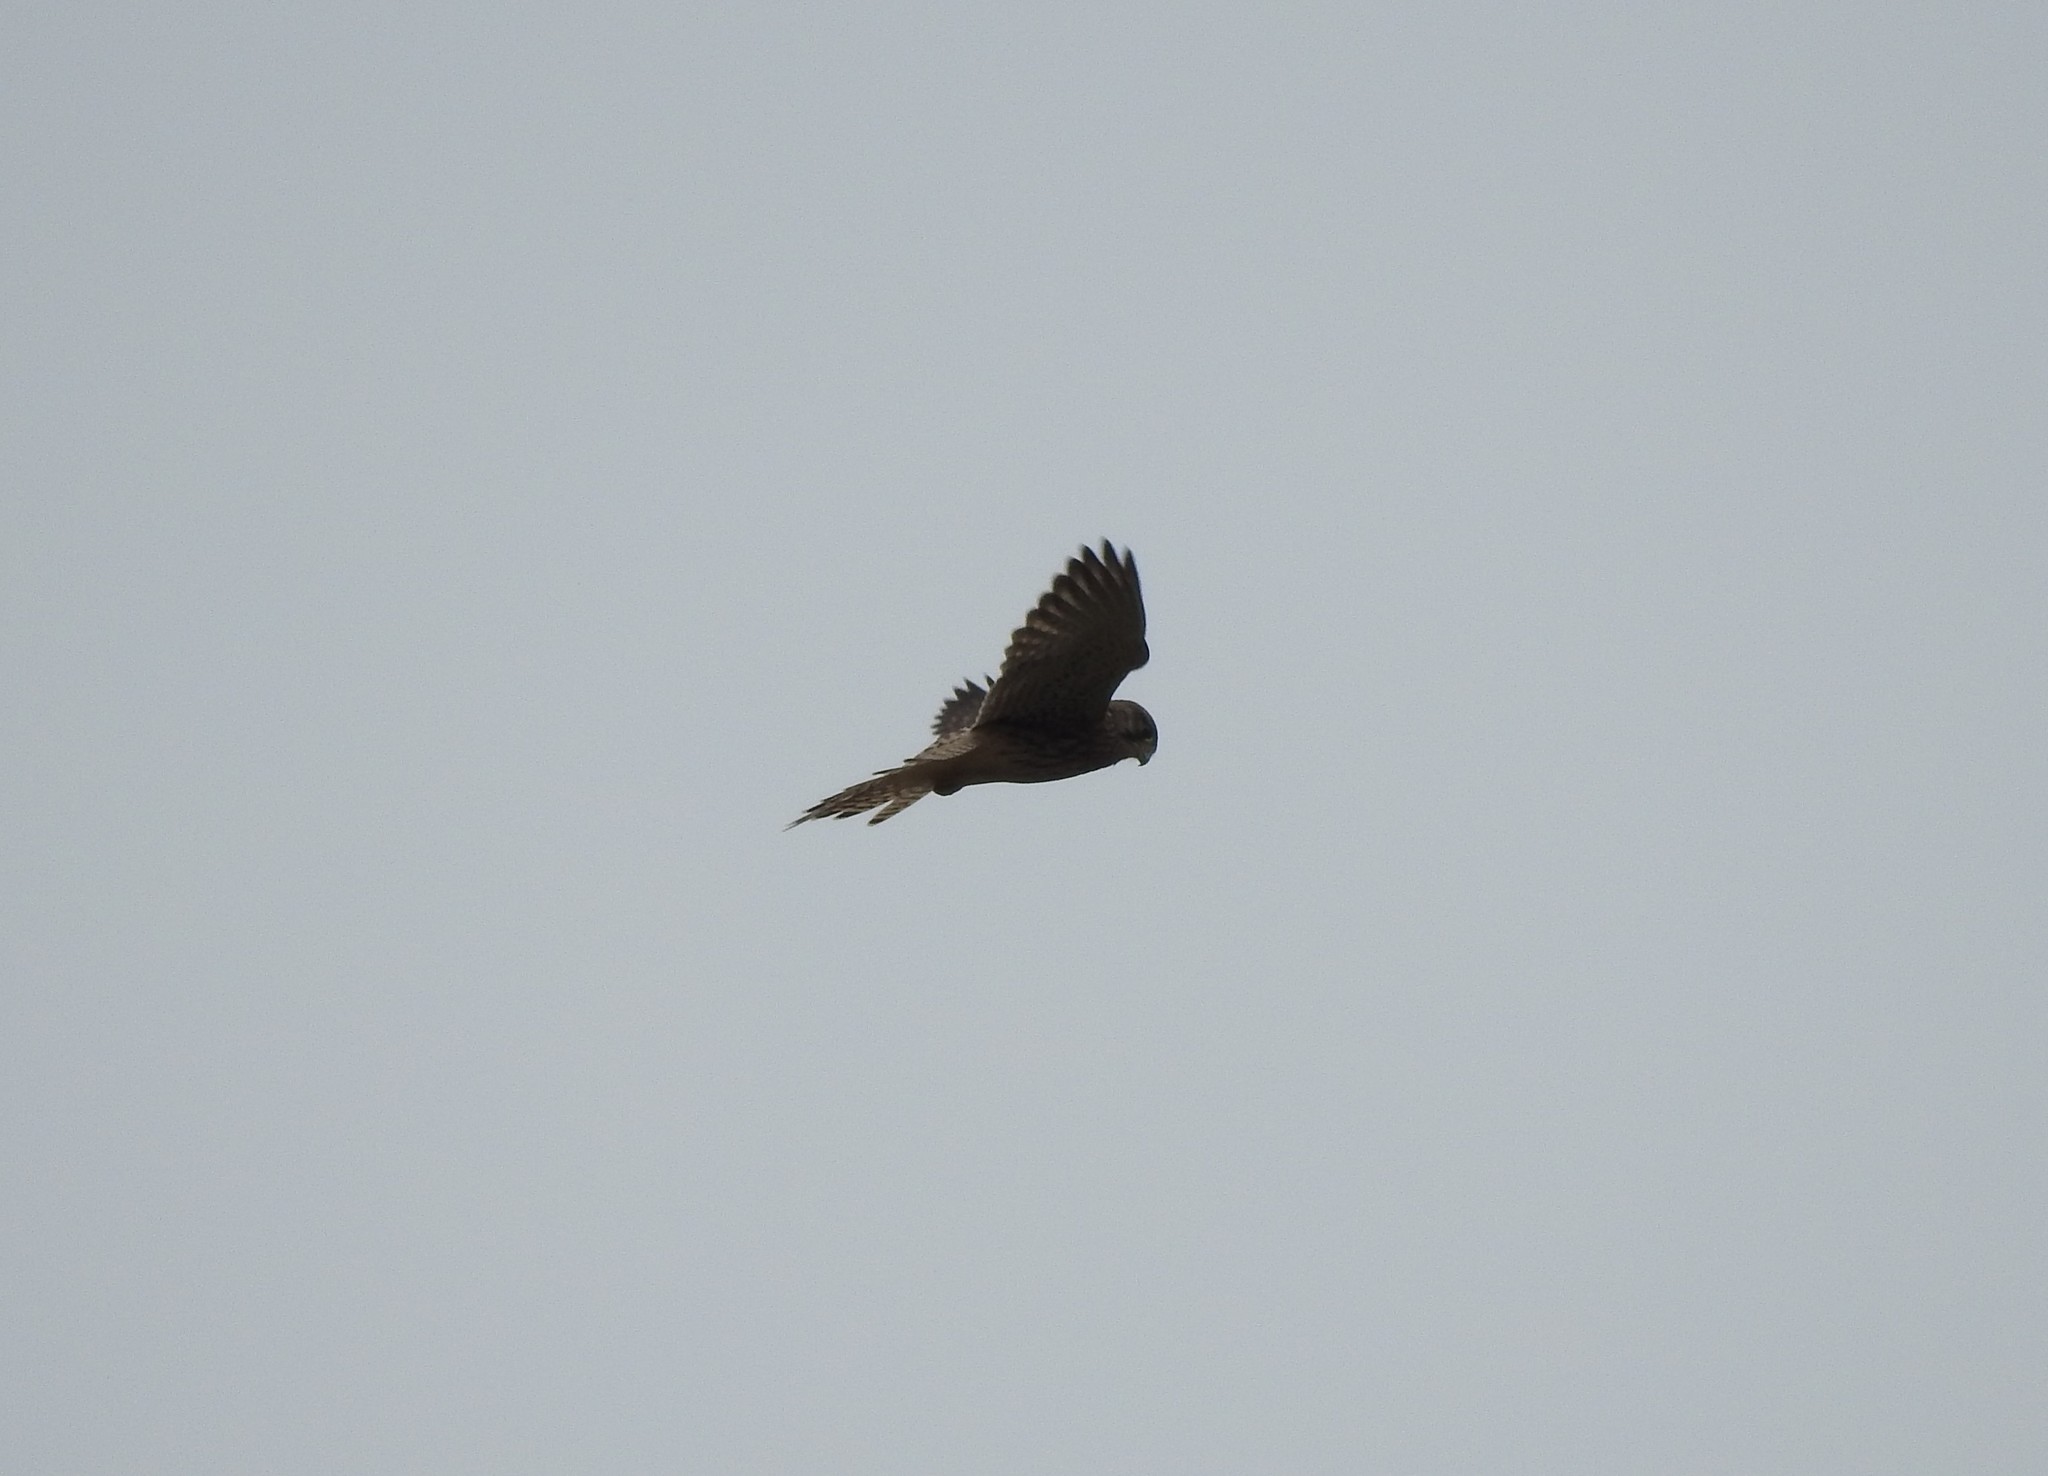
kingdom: Animalia
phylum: Chordata
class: Aves
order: Falconiformes
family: Falconidae
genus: Falco
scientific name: Falco tinnunculus
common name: Common kestrel
